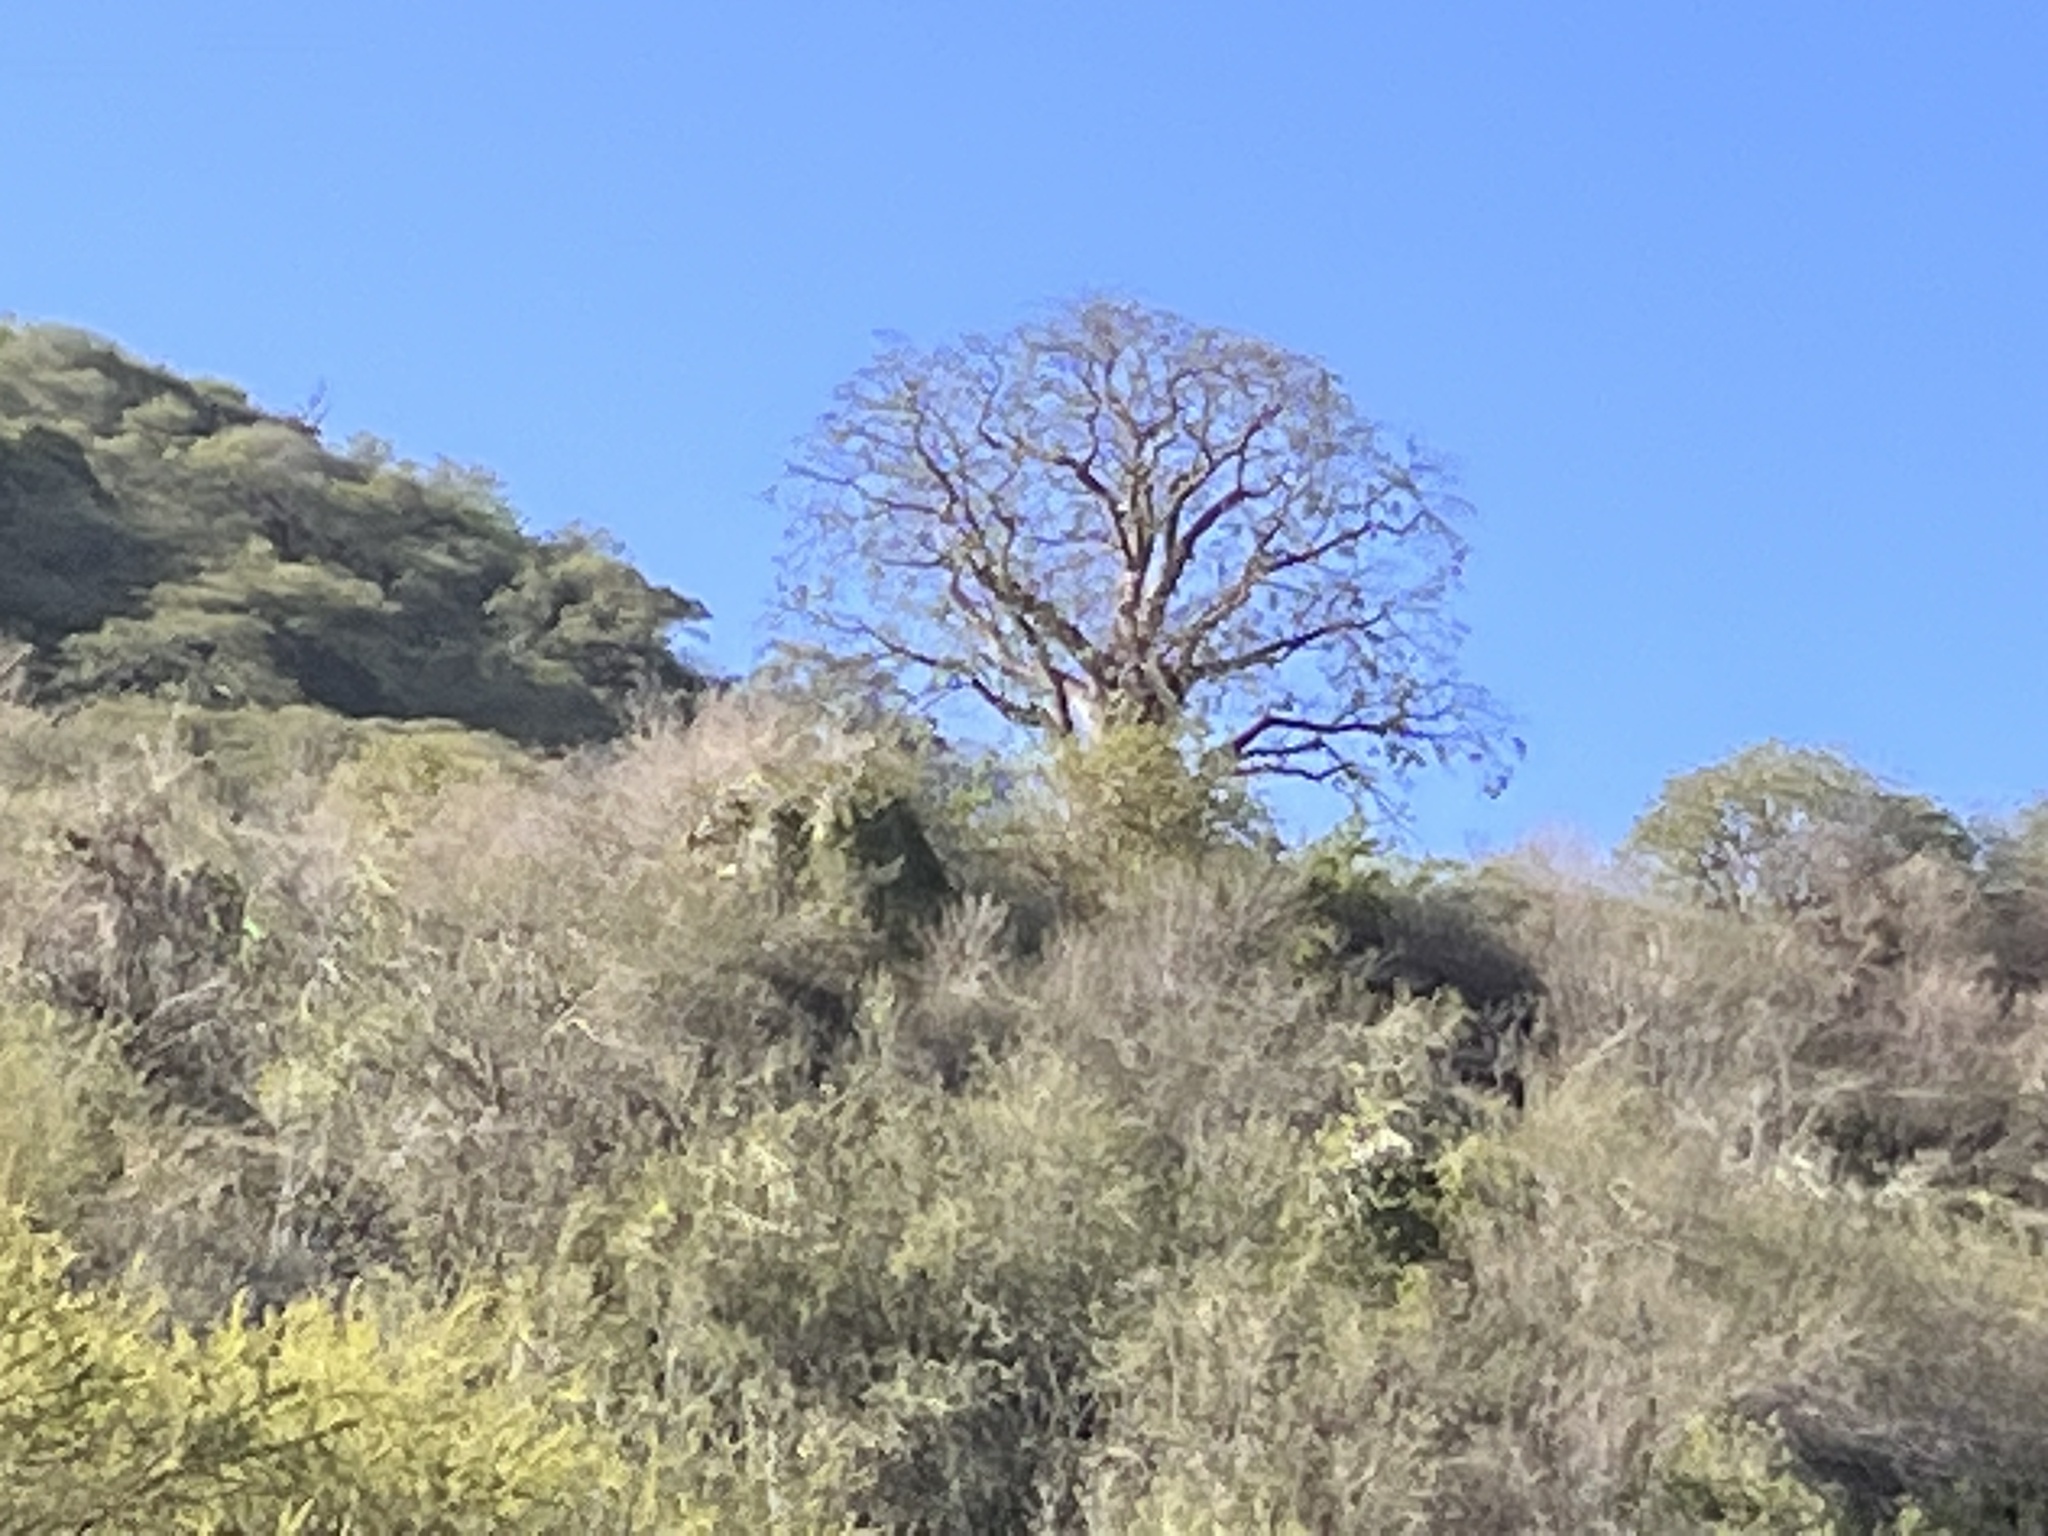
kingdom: Plantae
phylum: Tracheophyta
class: Magnoliopsida
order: Malvales
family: Malvaceae
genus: Adansonia
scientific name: Adansonia digitata
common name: Dead-rat-tree
